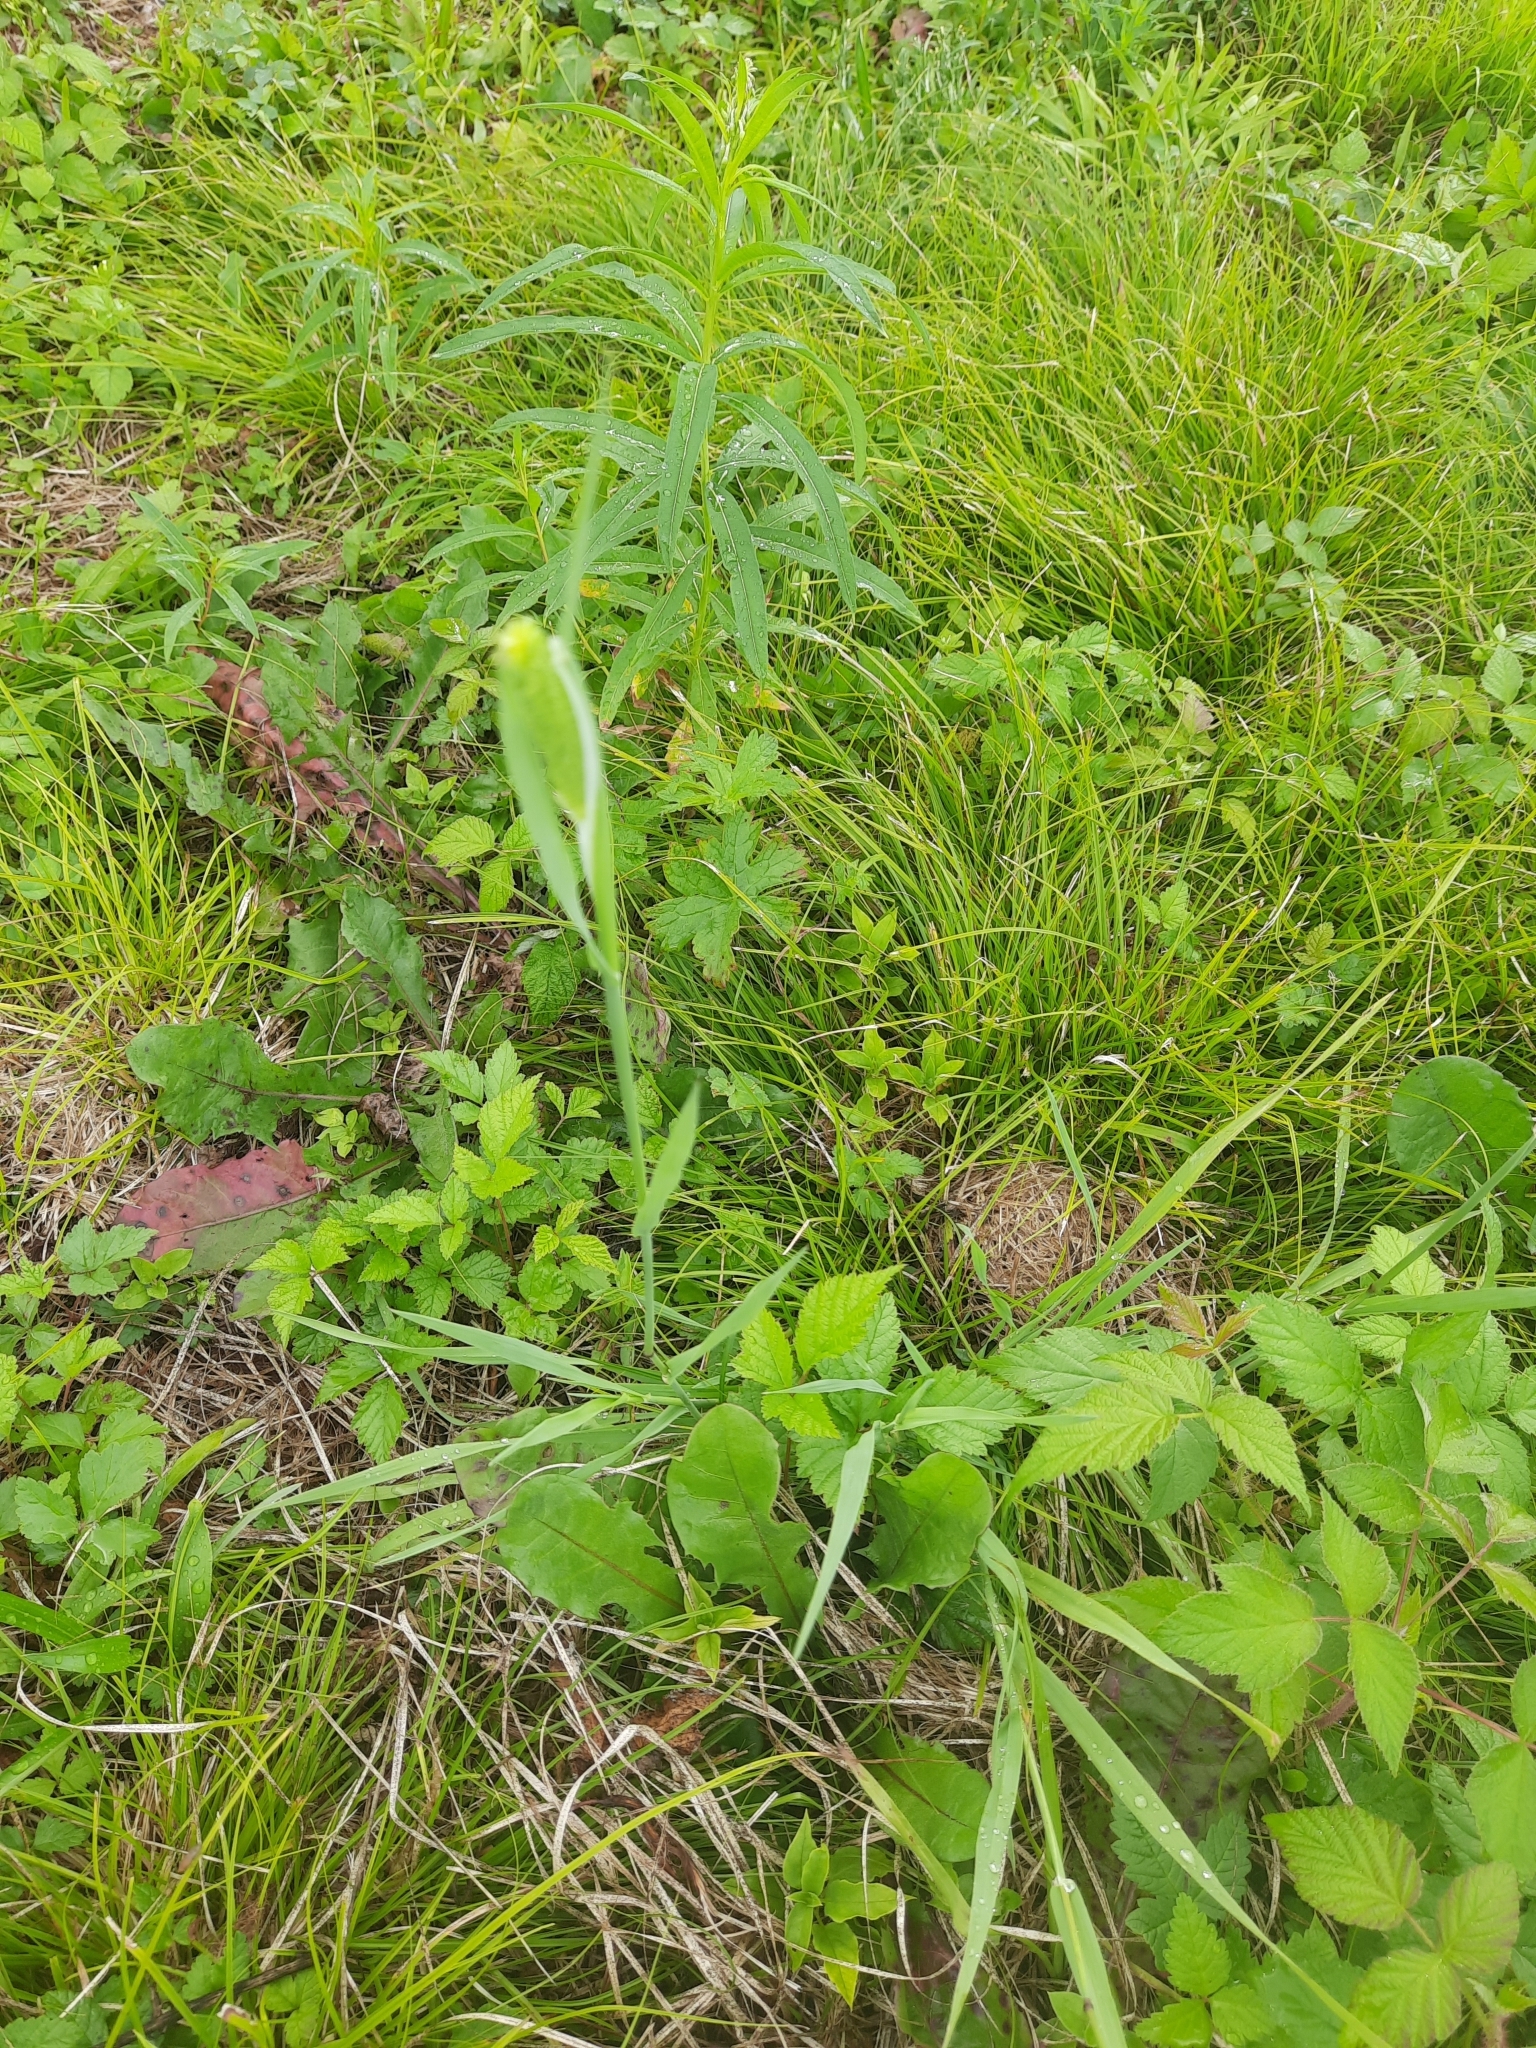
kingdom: Plantae
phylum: Tracheophyta
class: Liliopsida
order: Poales
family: Poaceae
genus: Phleum
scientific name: Phleum pratense
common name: Timothy grass
